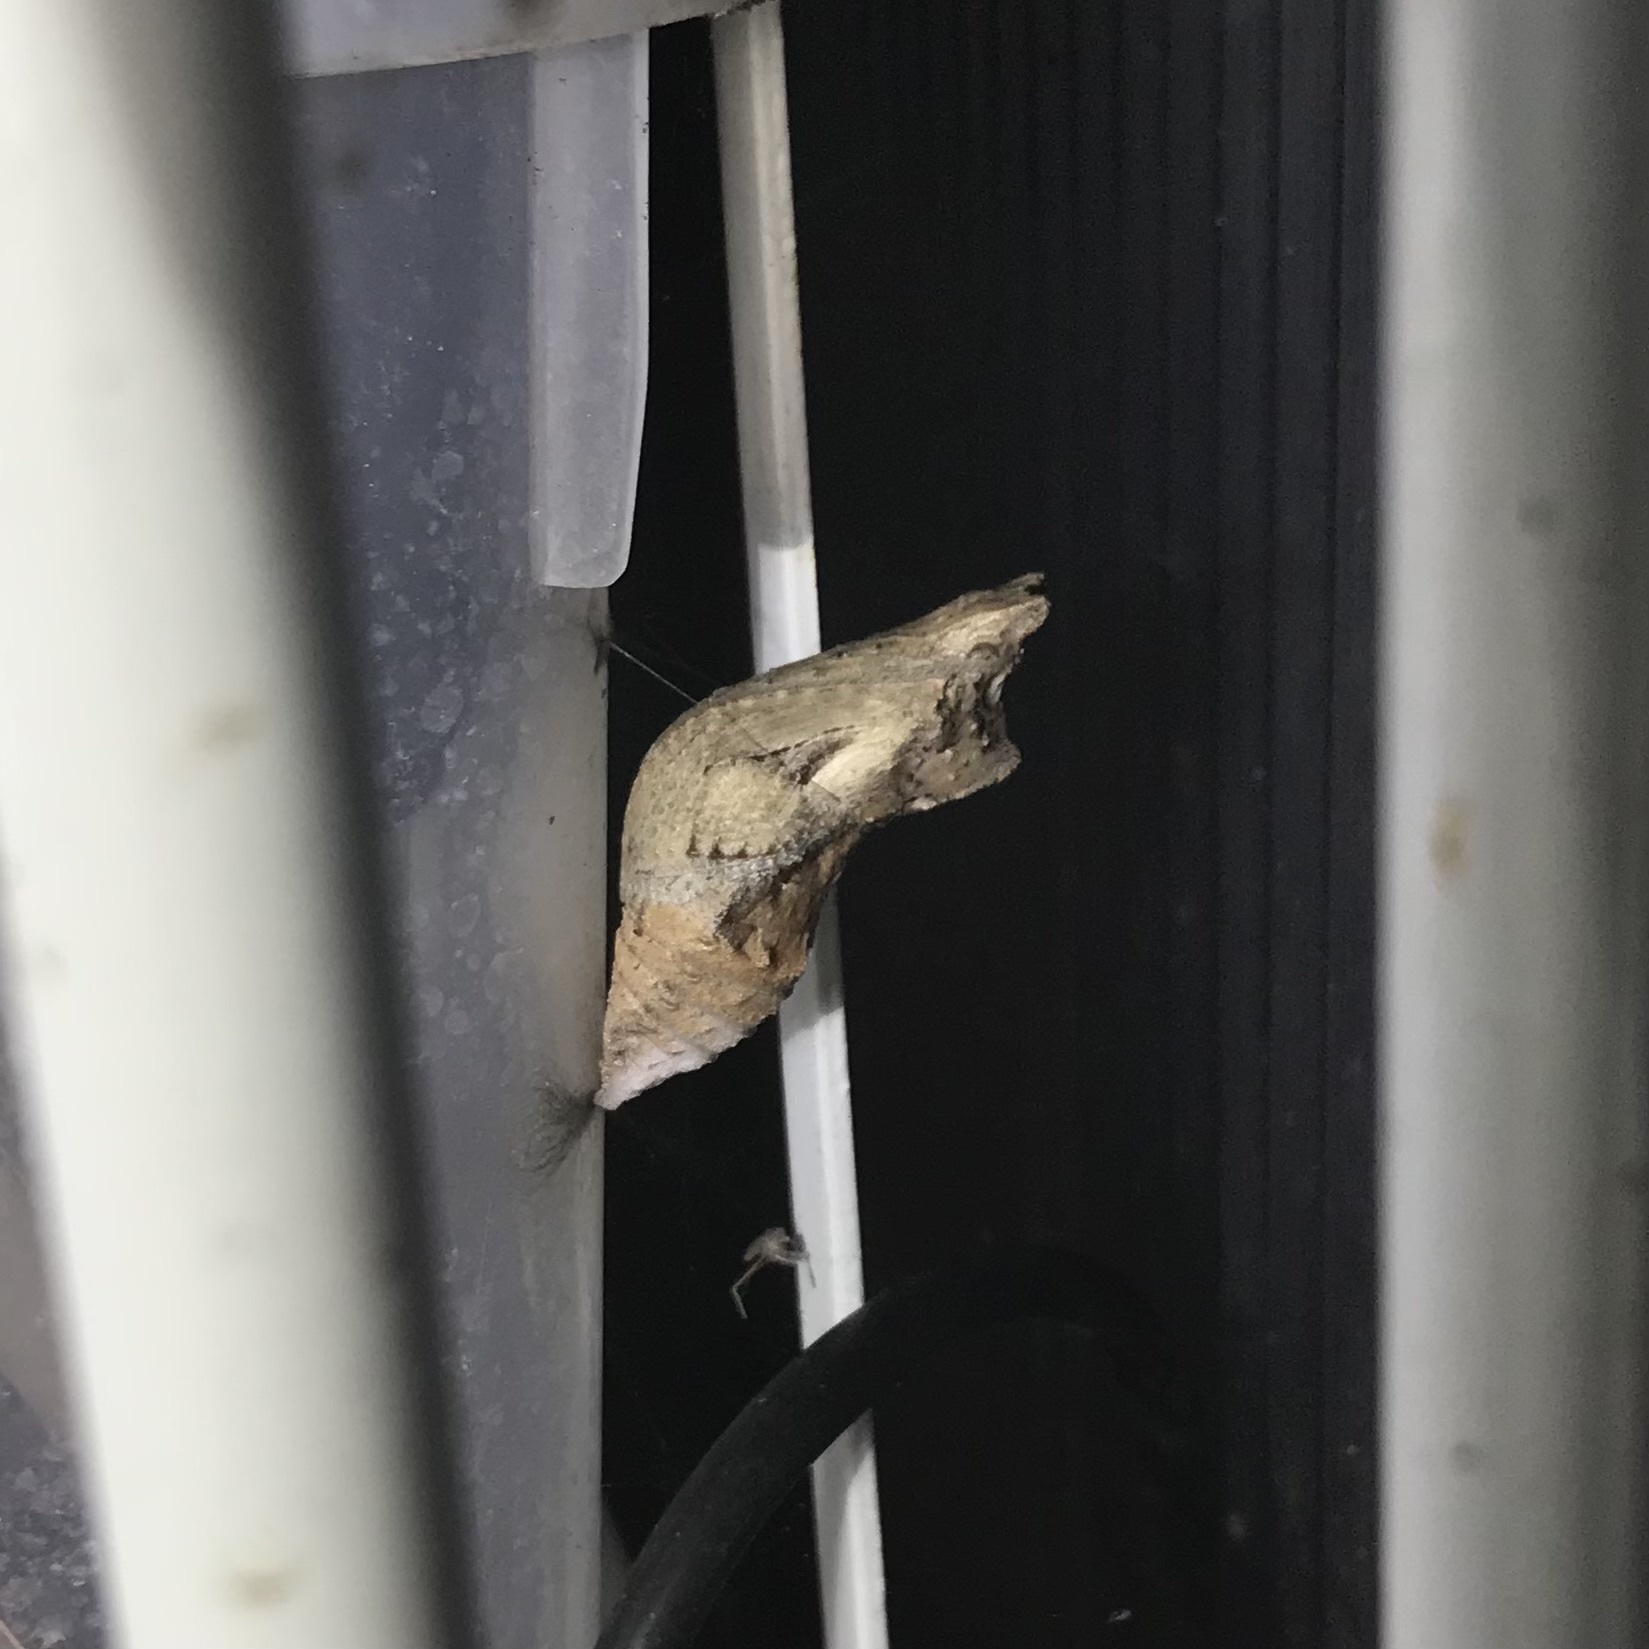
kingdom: Animalia
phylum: Arthropoda
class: Insecta
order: Lepidoptera
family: Papilionidae
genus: Papilio
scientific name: Papilio aegeus
